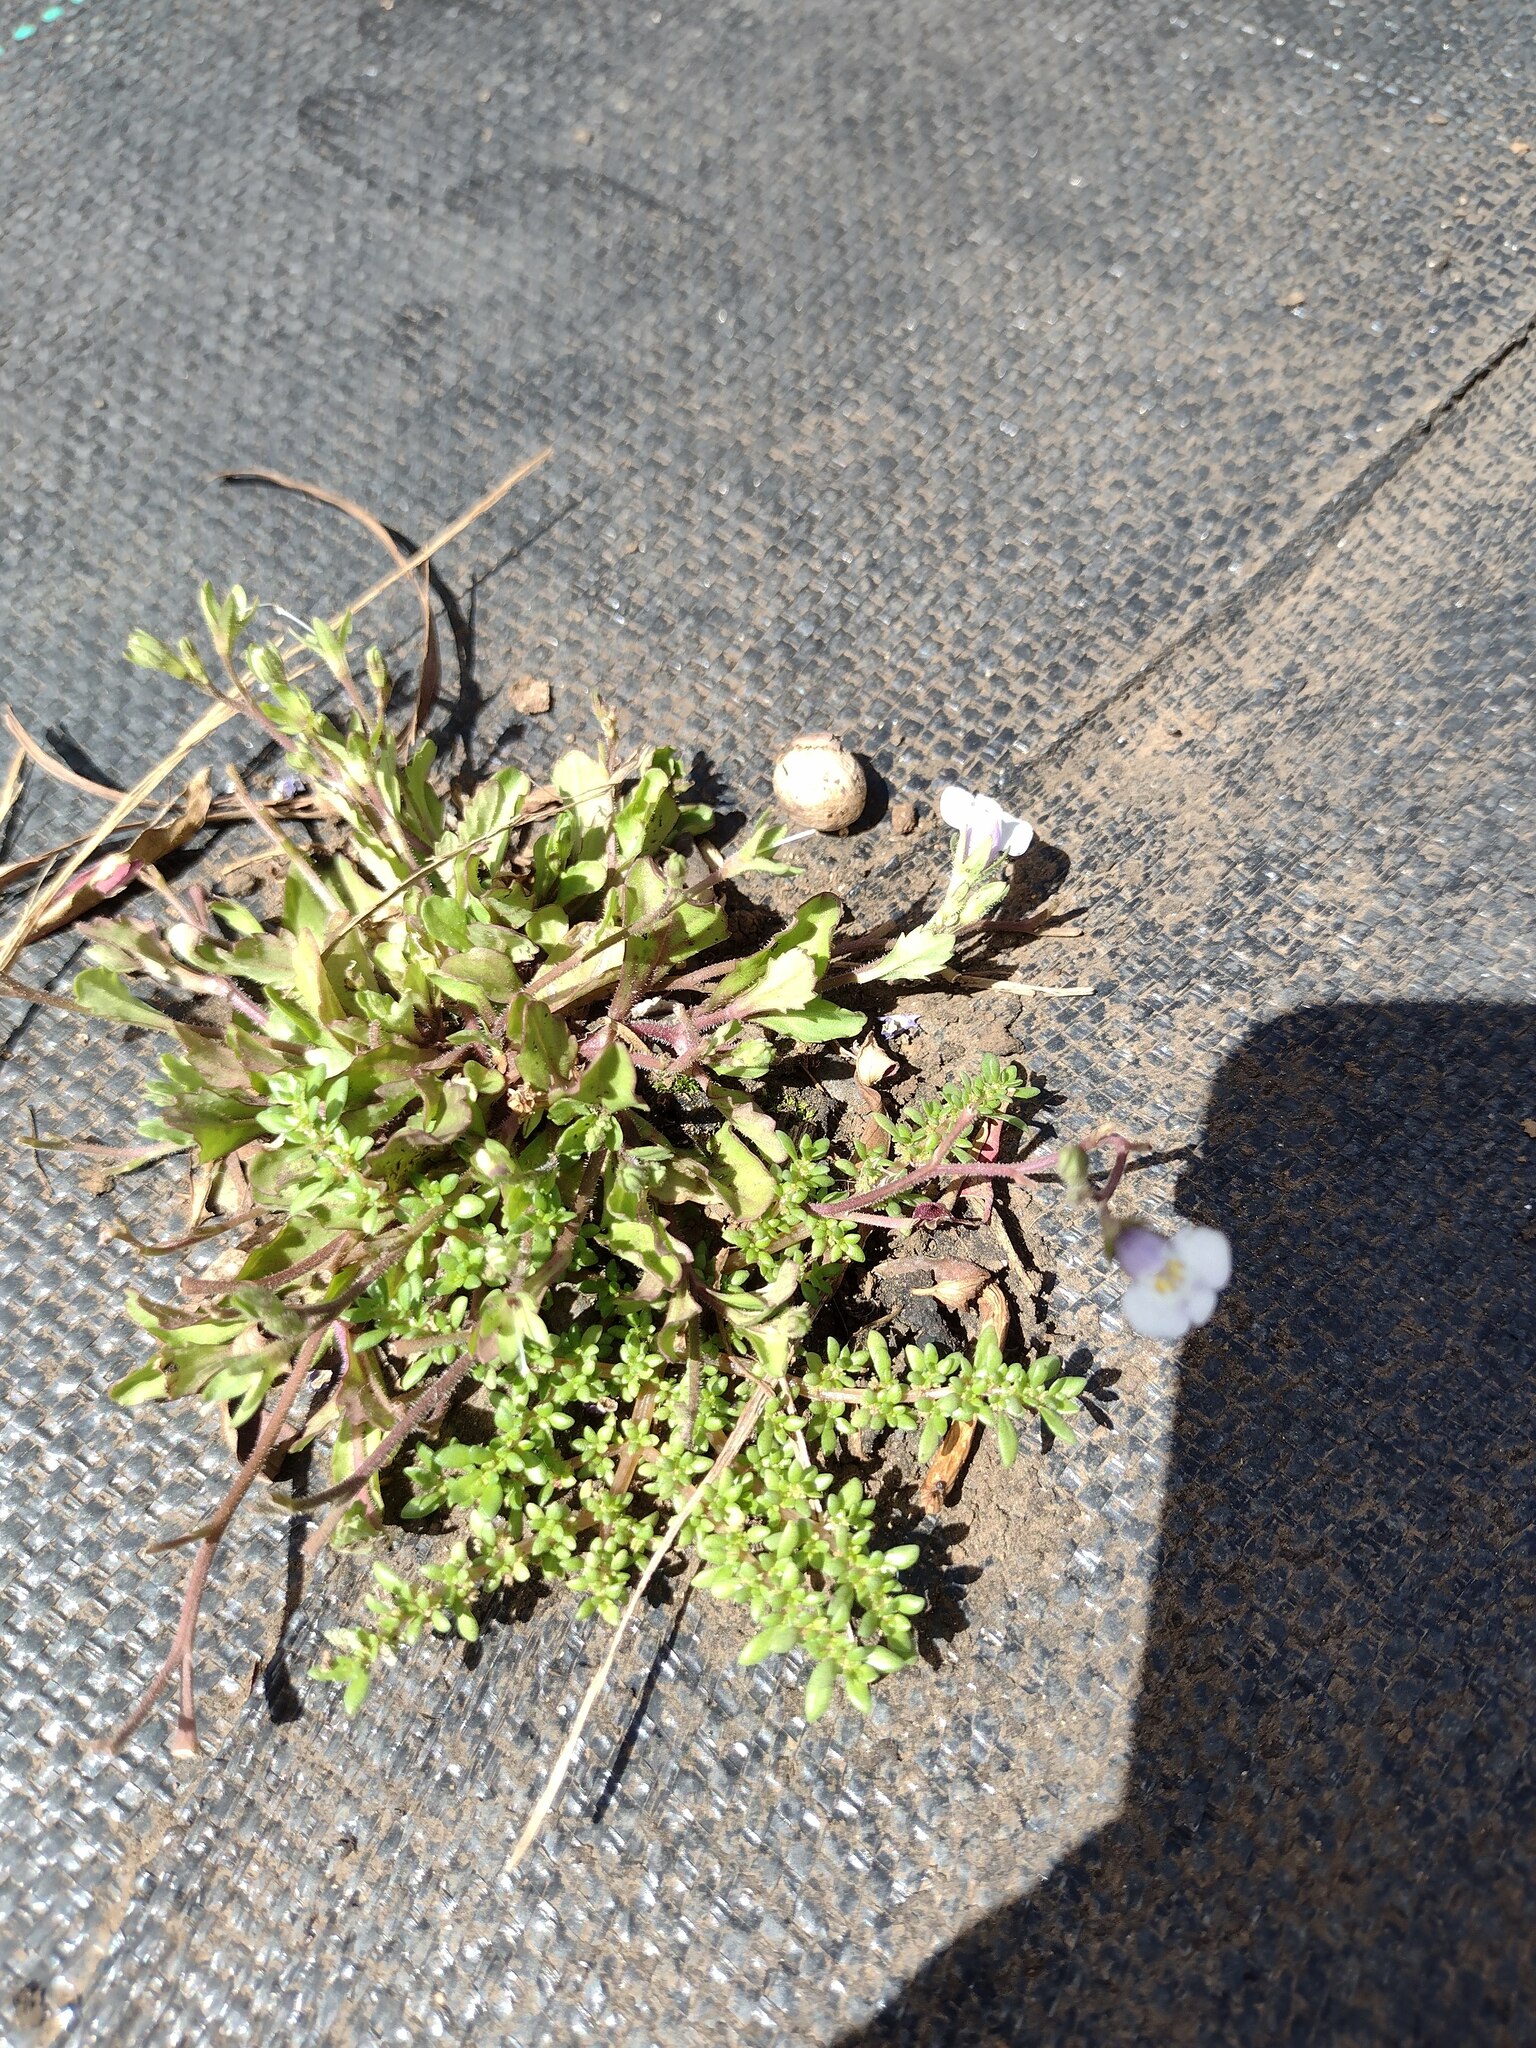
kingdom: Plantae
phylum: Tracheophyta
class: Magnoliopsida
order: Lamiales
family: Mazaceae
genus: Mazus
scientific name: Mazus pumilus
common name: Japanese mazus
